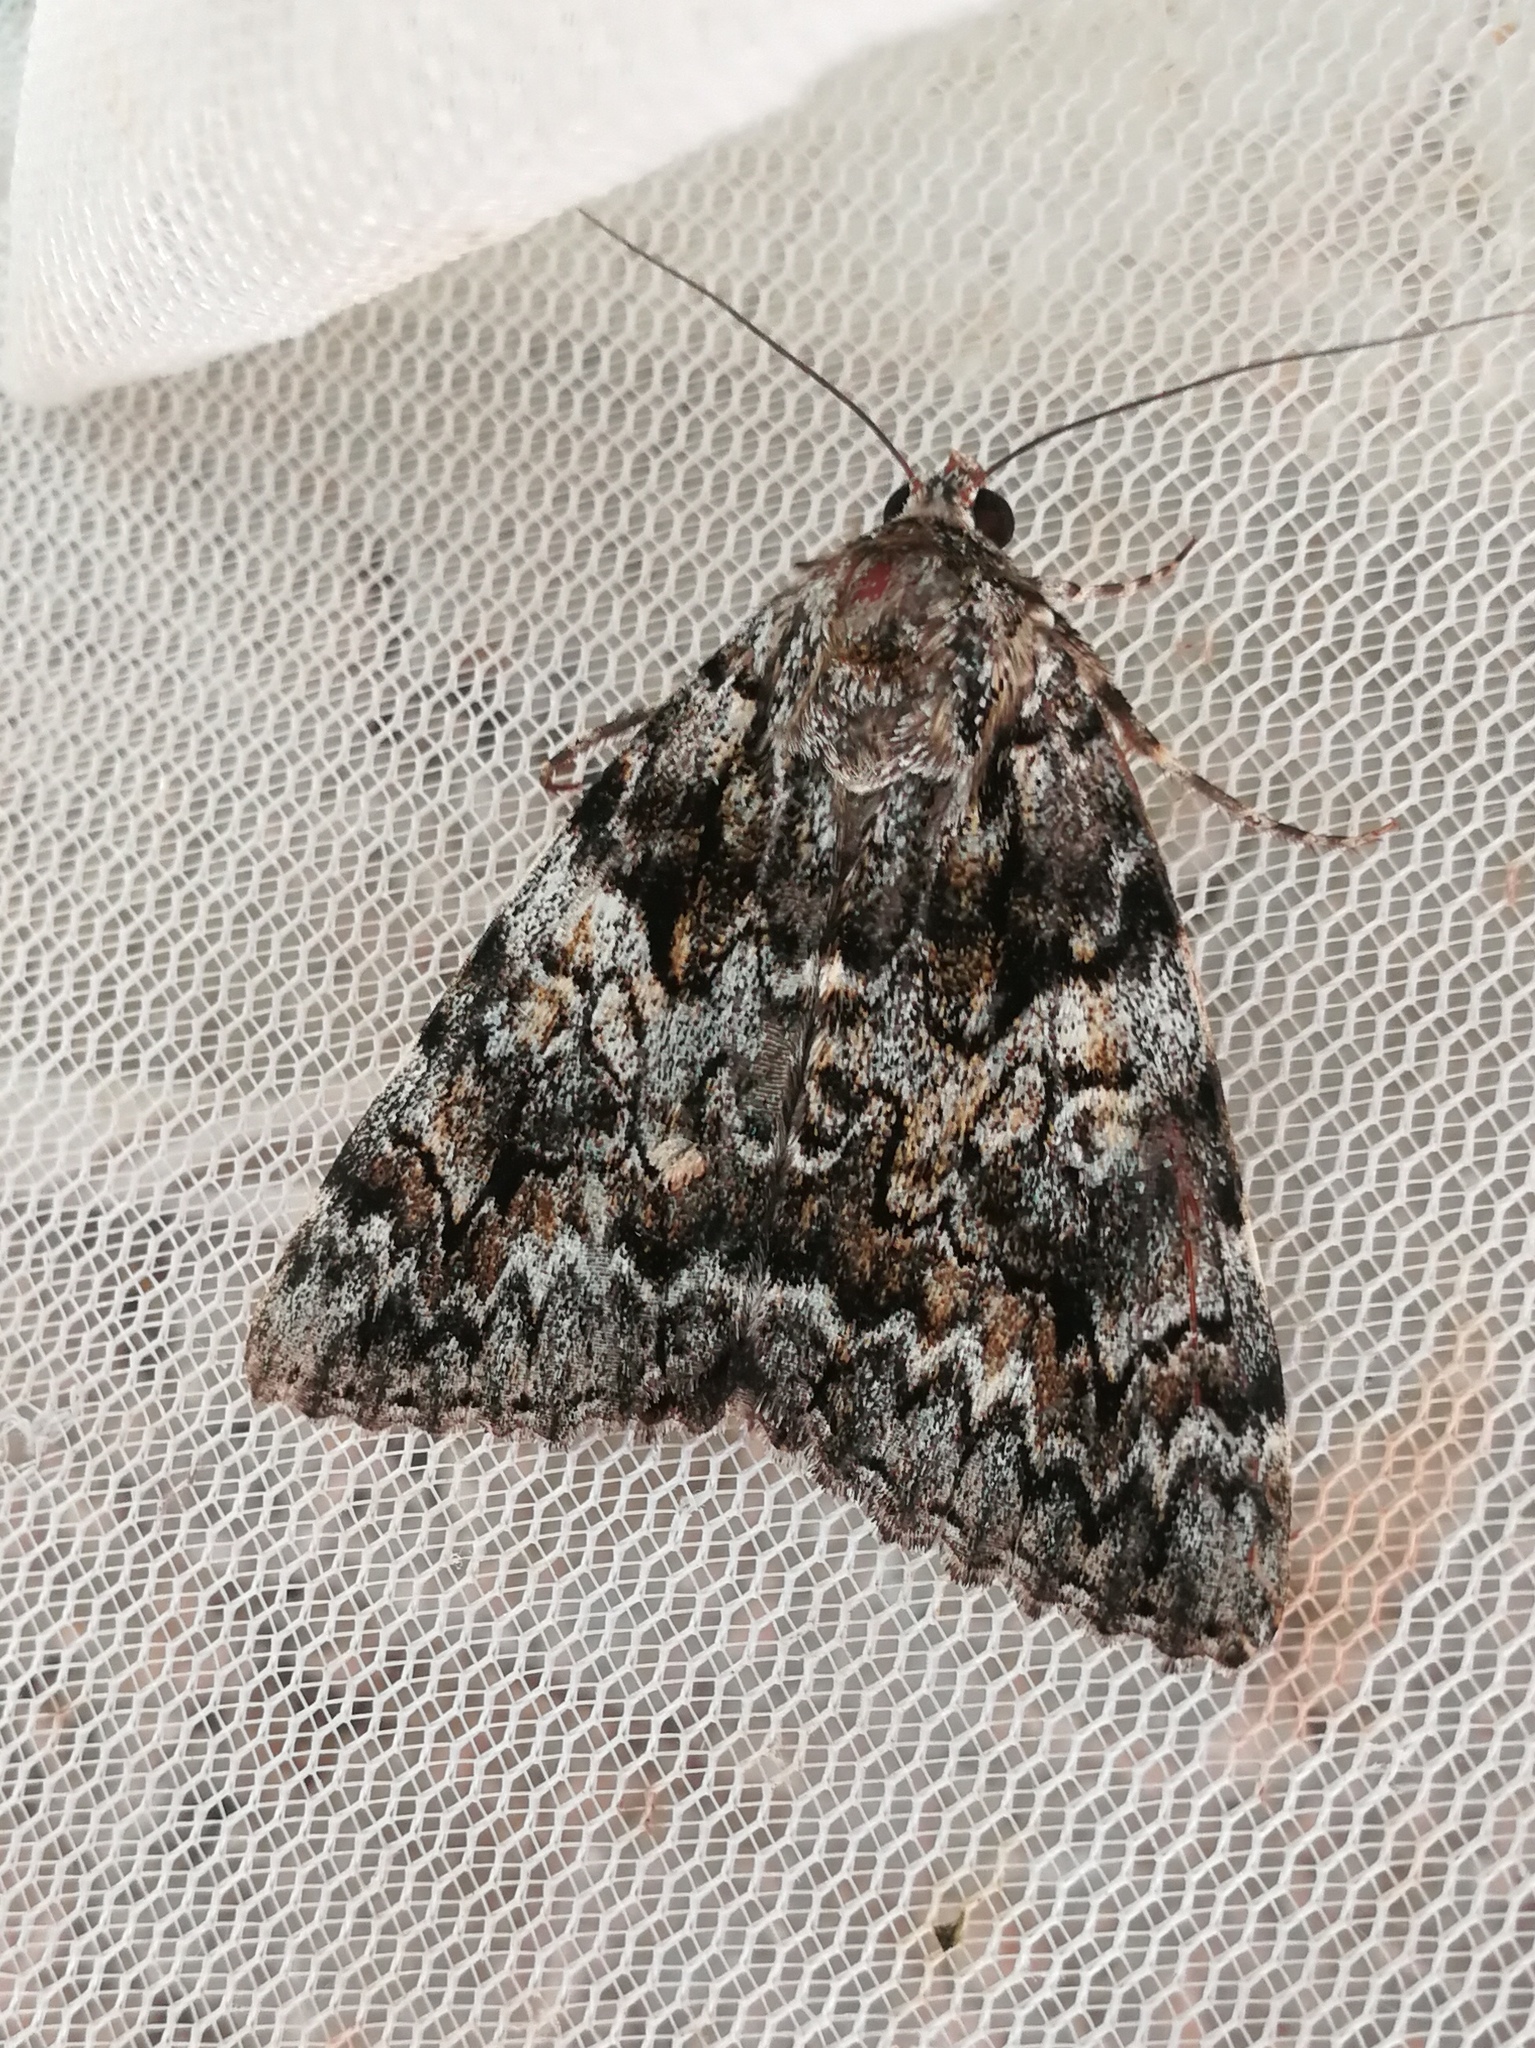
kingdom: Animalia
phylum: Arthropoda
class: Insecta
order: Lepidoptera
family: Erebidae
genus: Catocala
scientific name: Catocala promissa
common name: Light crimson underwing
